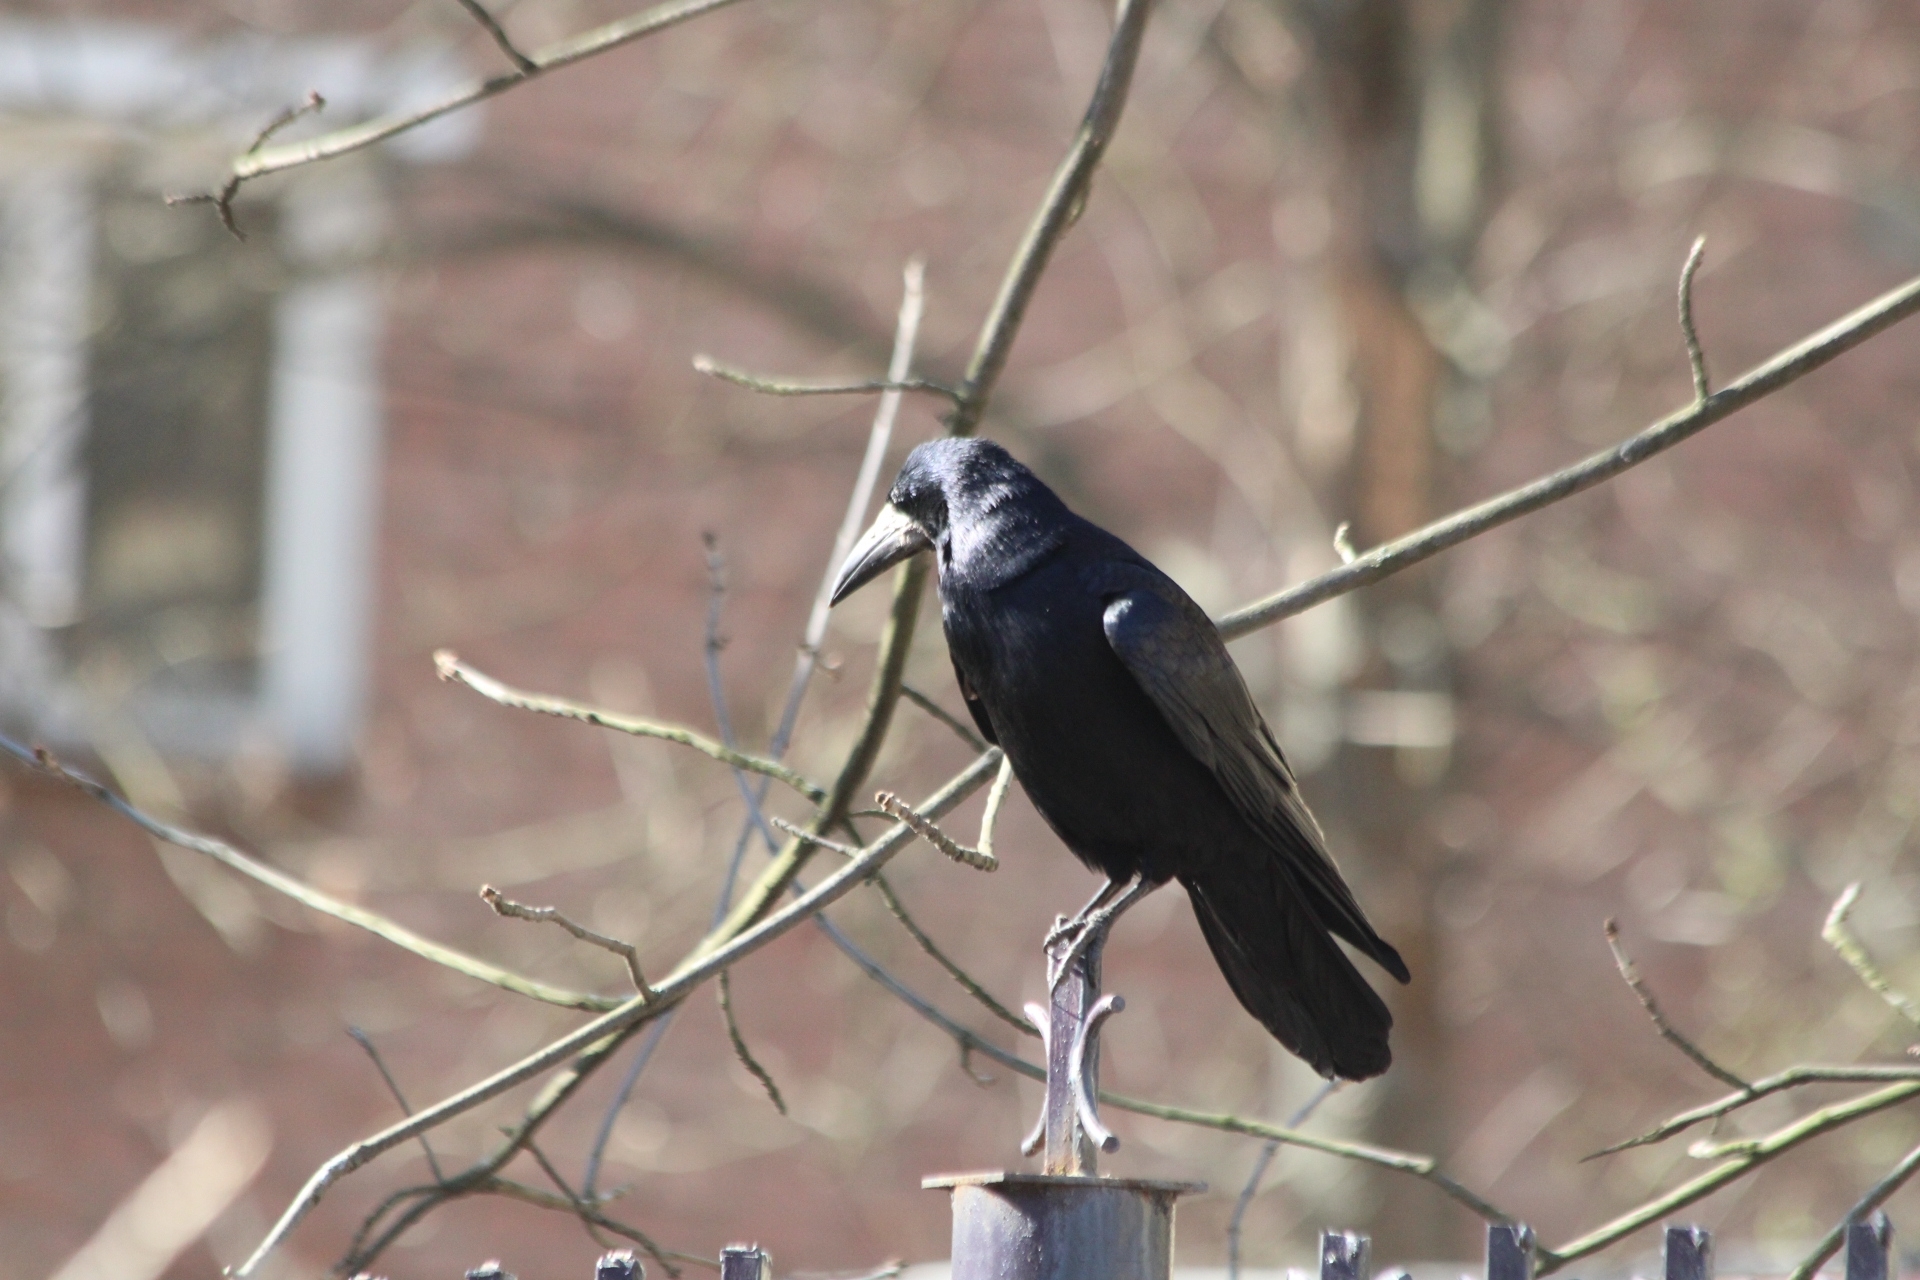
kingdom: Animalia
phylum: Chordata
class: Aves
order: Passeriformes
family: Corvidae
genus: Corvus
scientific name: Corvus frugilegus
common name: Rook
